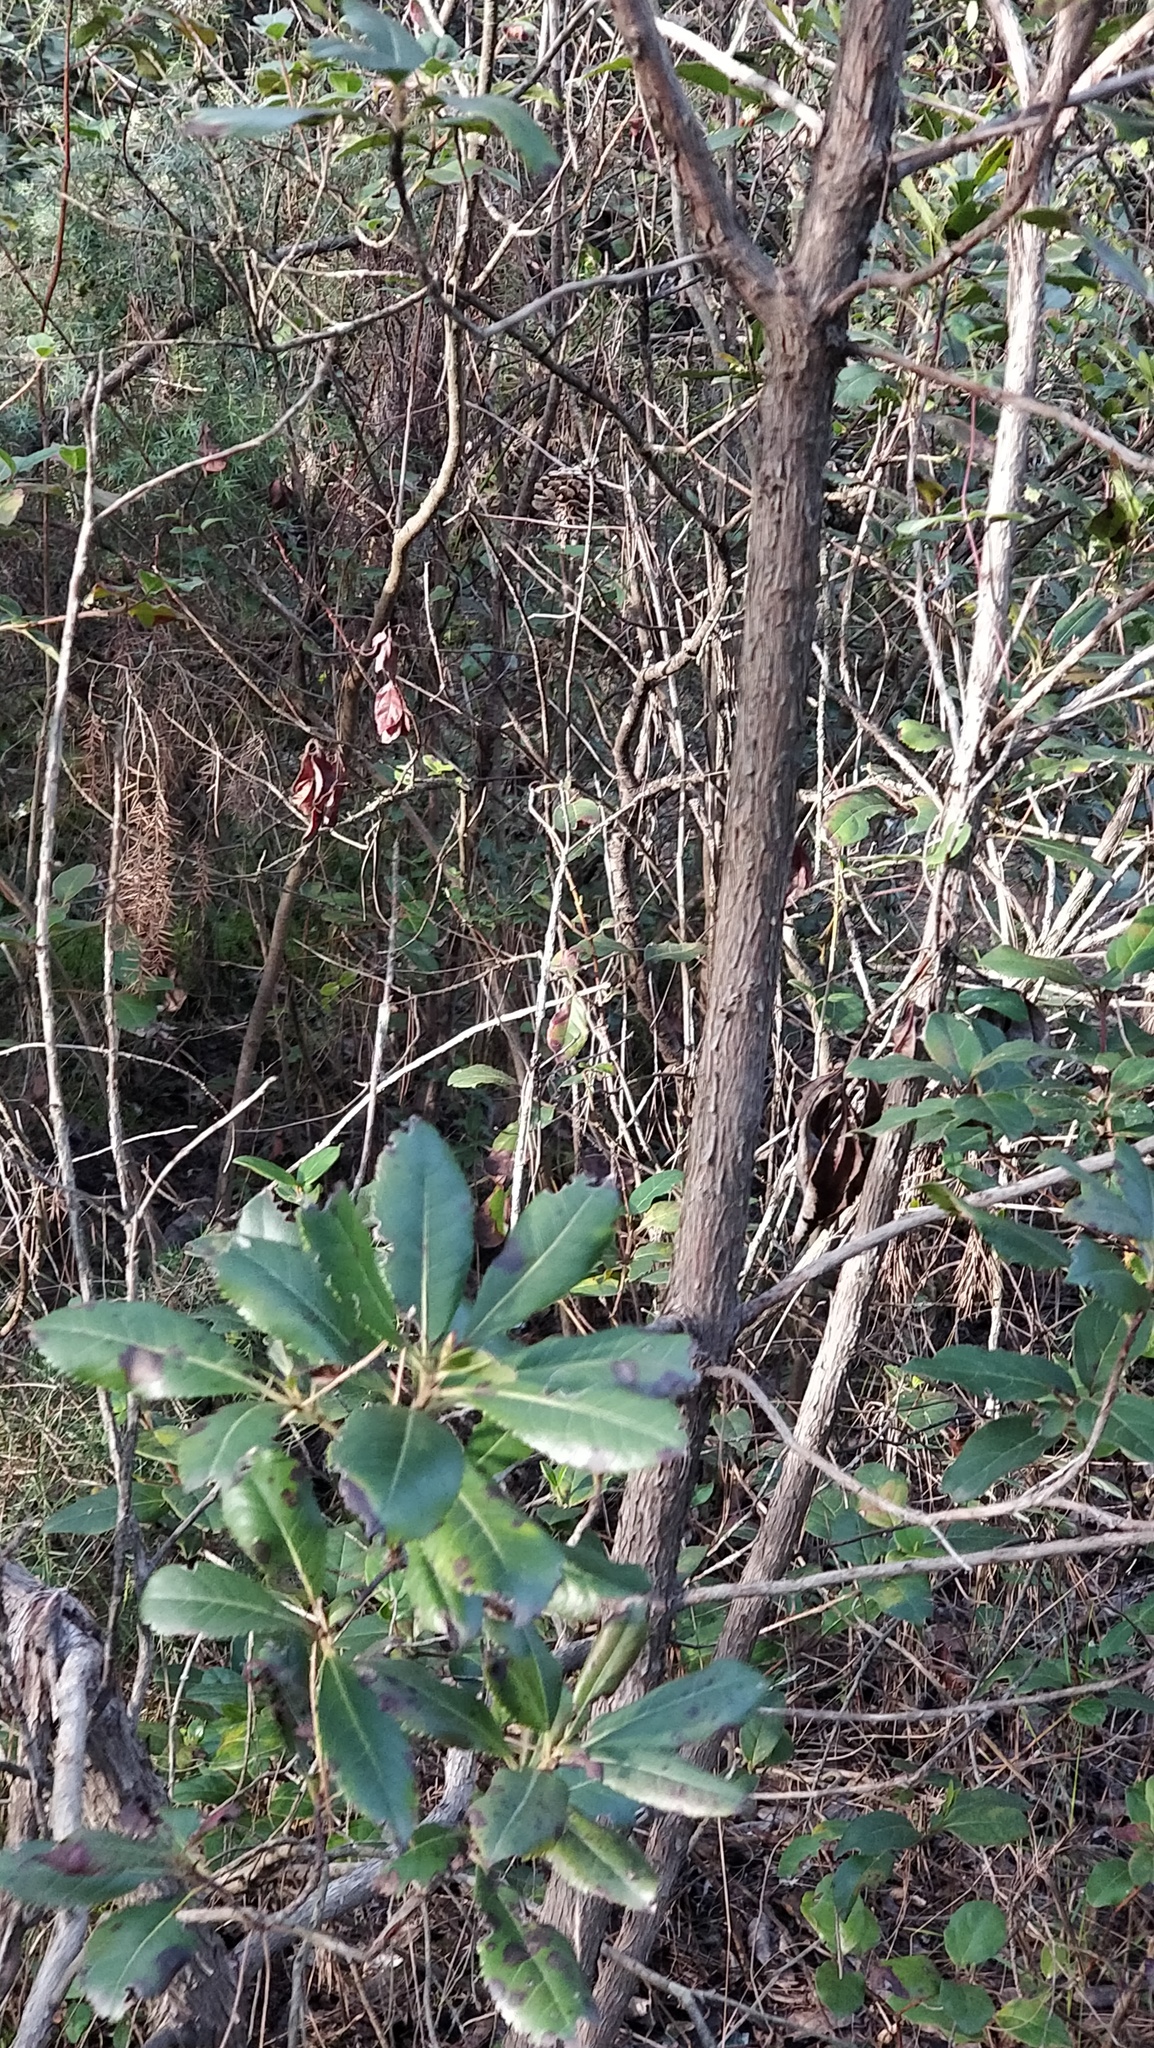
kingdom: Plantae
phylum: Tracheophyta
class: Magnoliopsida
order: Ericales
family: Ericaceae
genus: Arbutus
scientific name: Arbutus unedo
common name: Strawberry-tree
